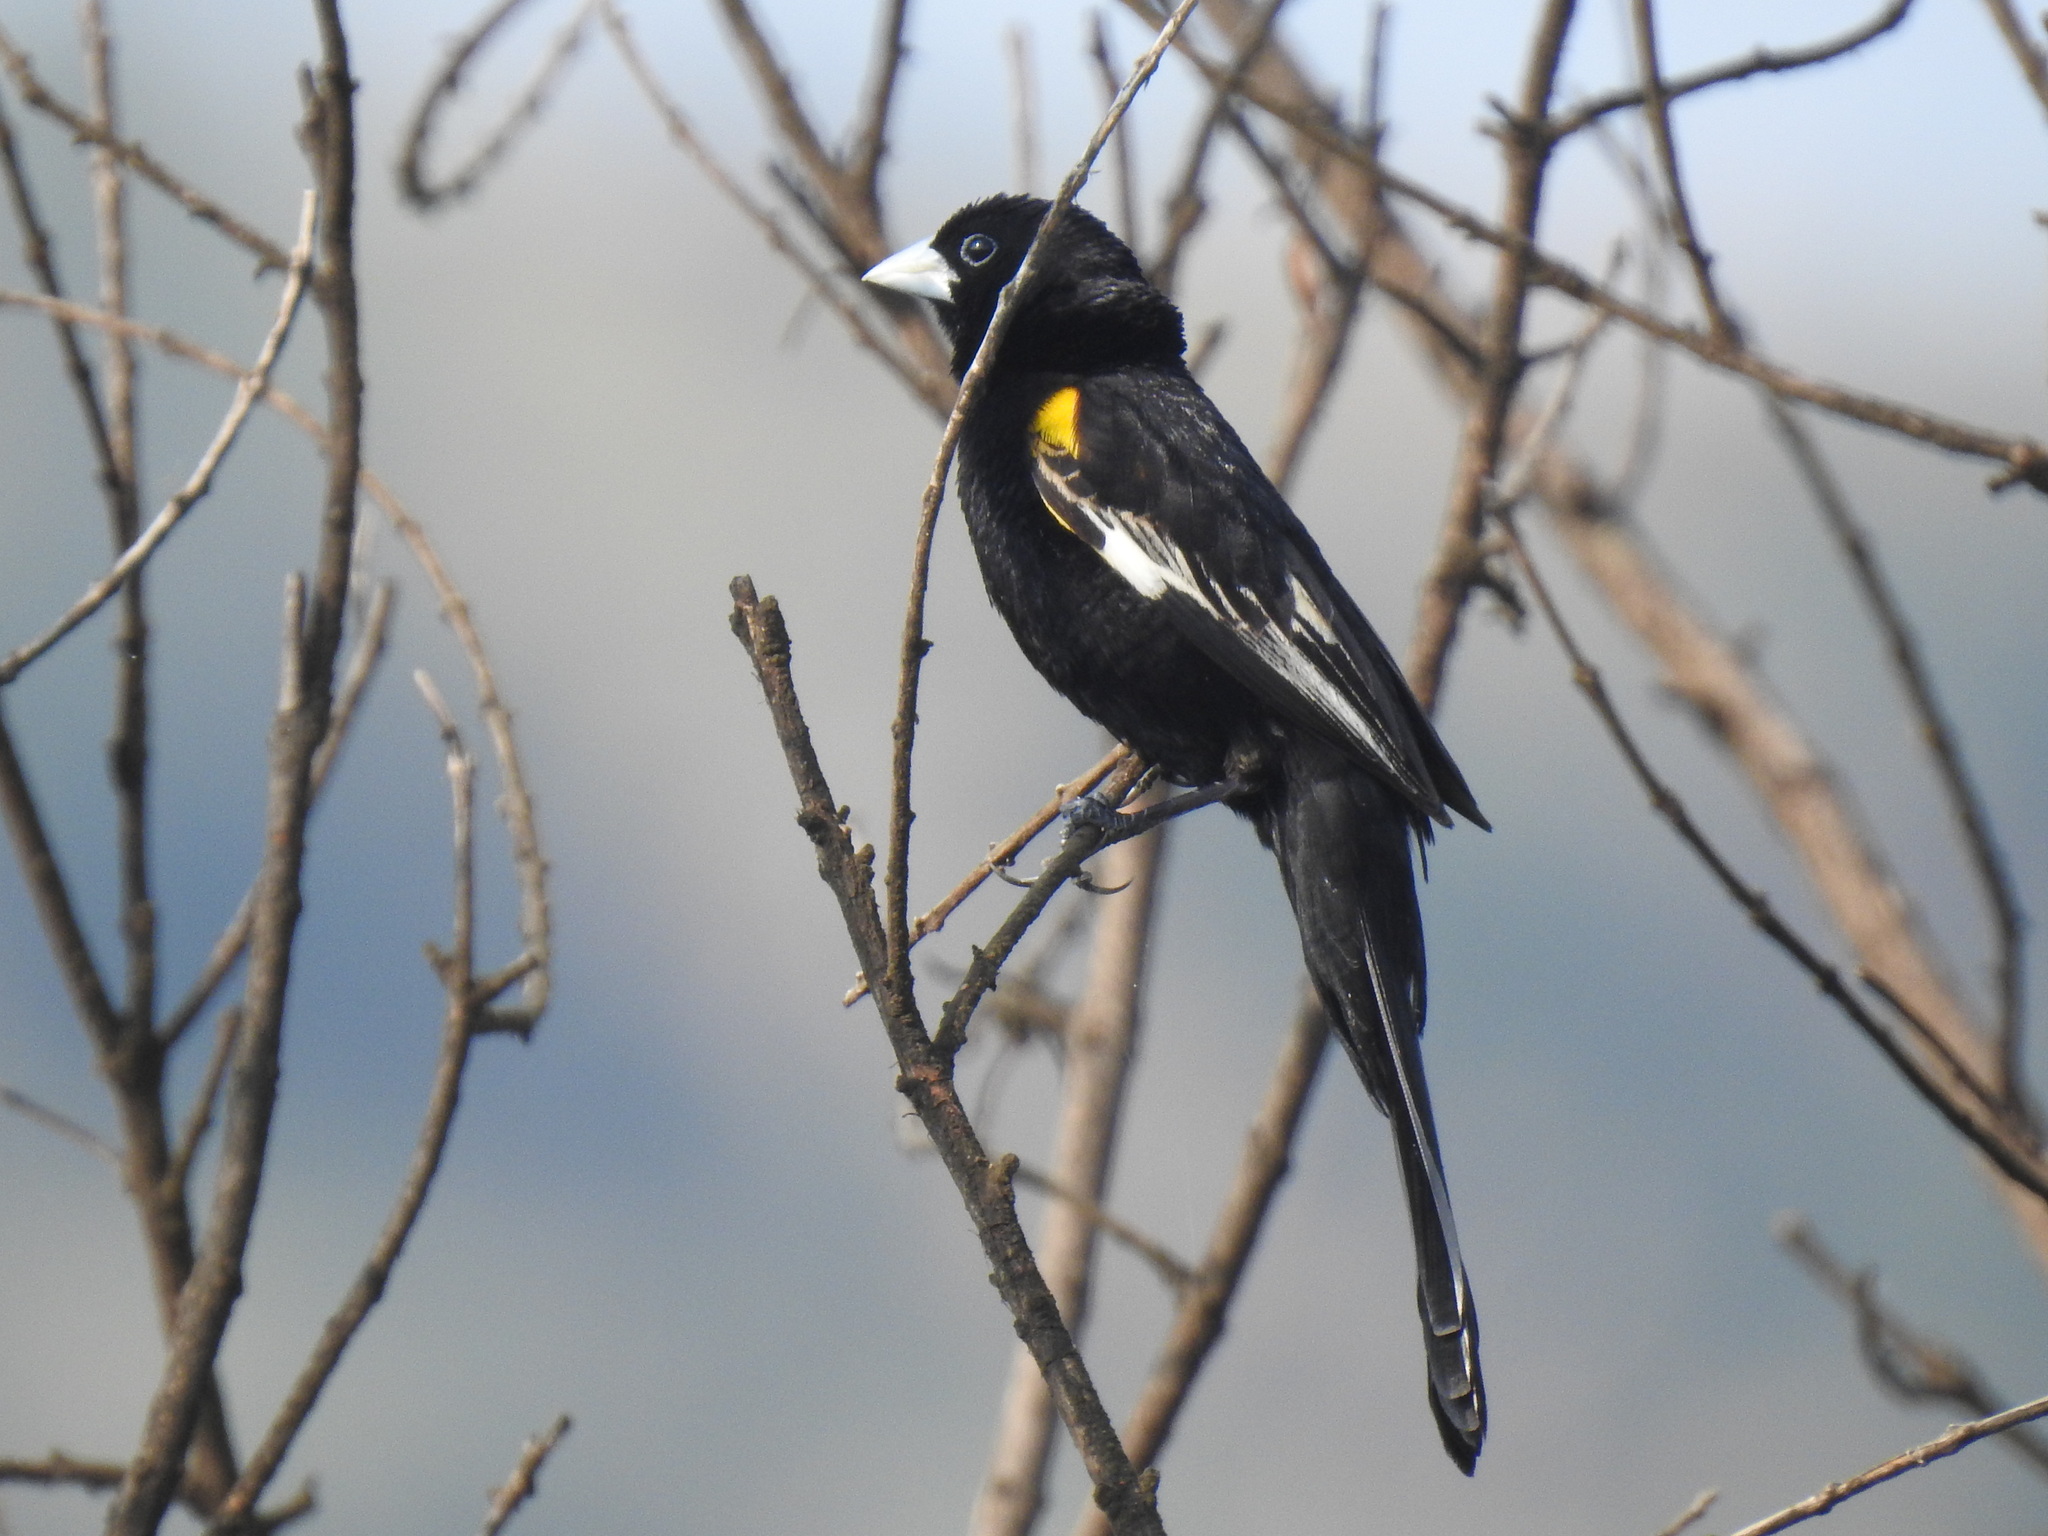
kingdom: Animalia
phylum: Chordata
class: Aves
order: Passeriformes
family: Ploceidae
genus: Euplectes
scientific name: Euplectes albonotatus
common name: White-winged widowbird
